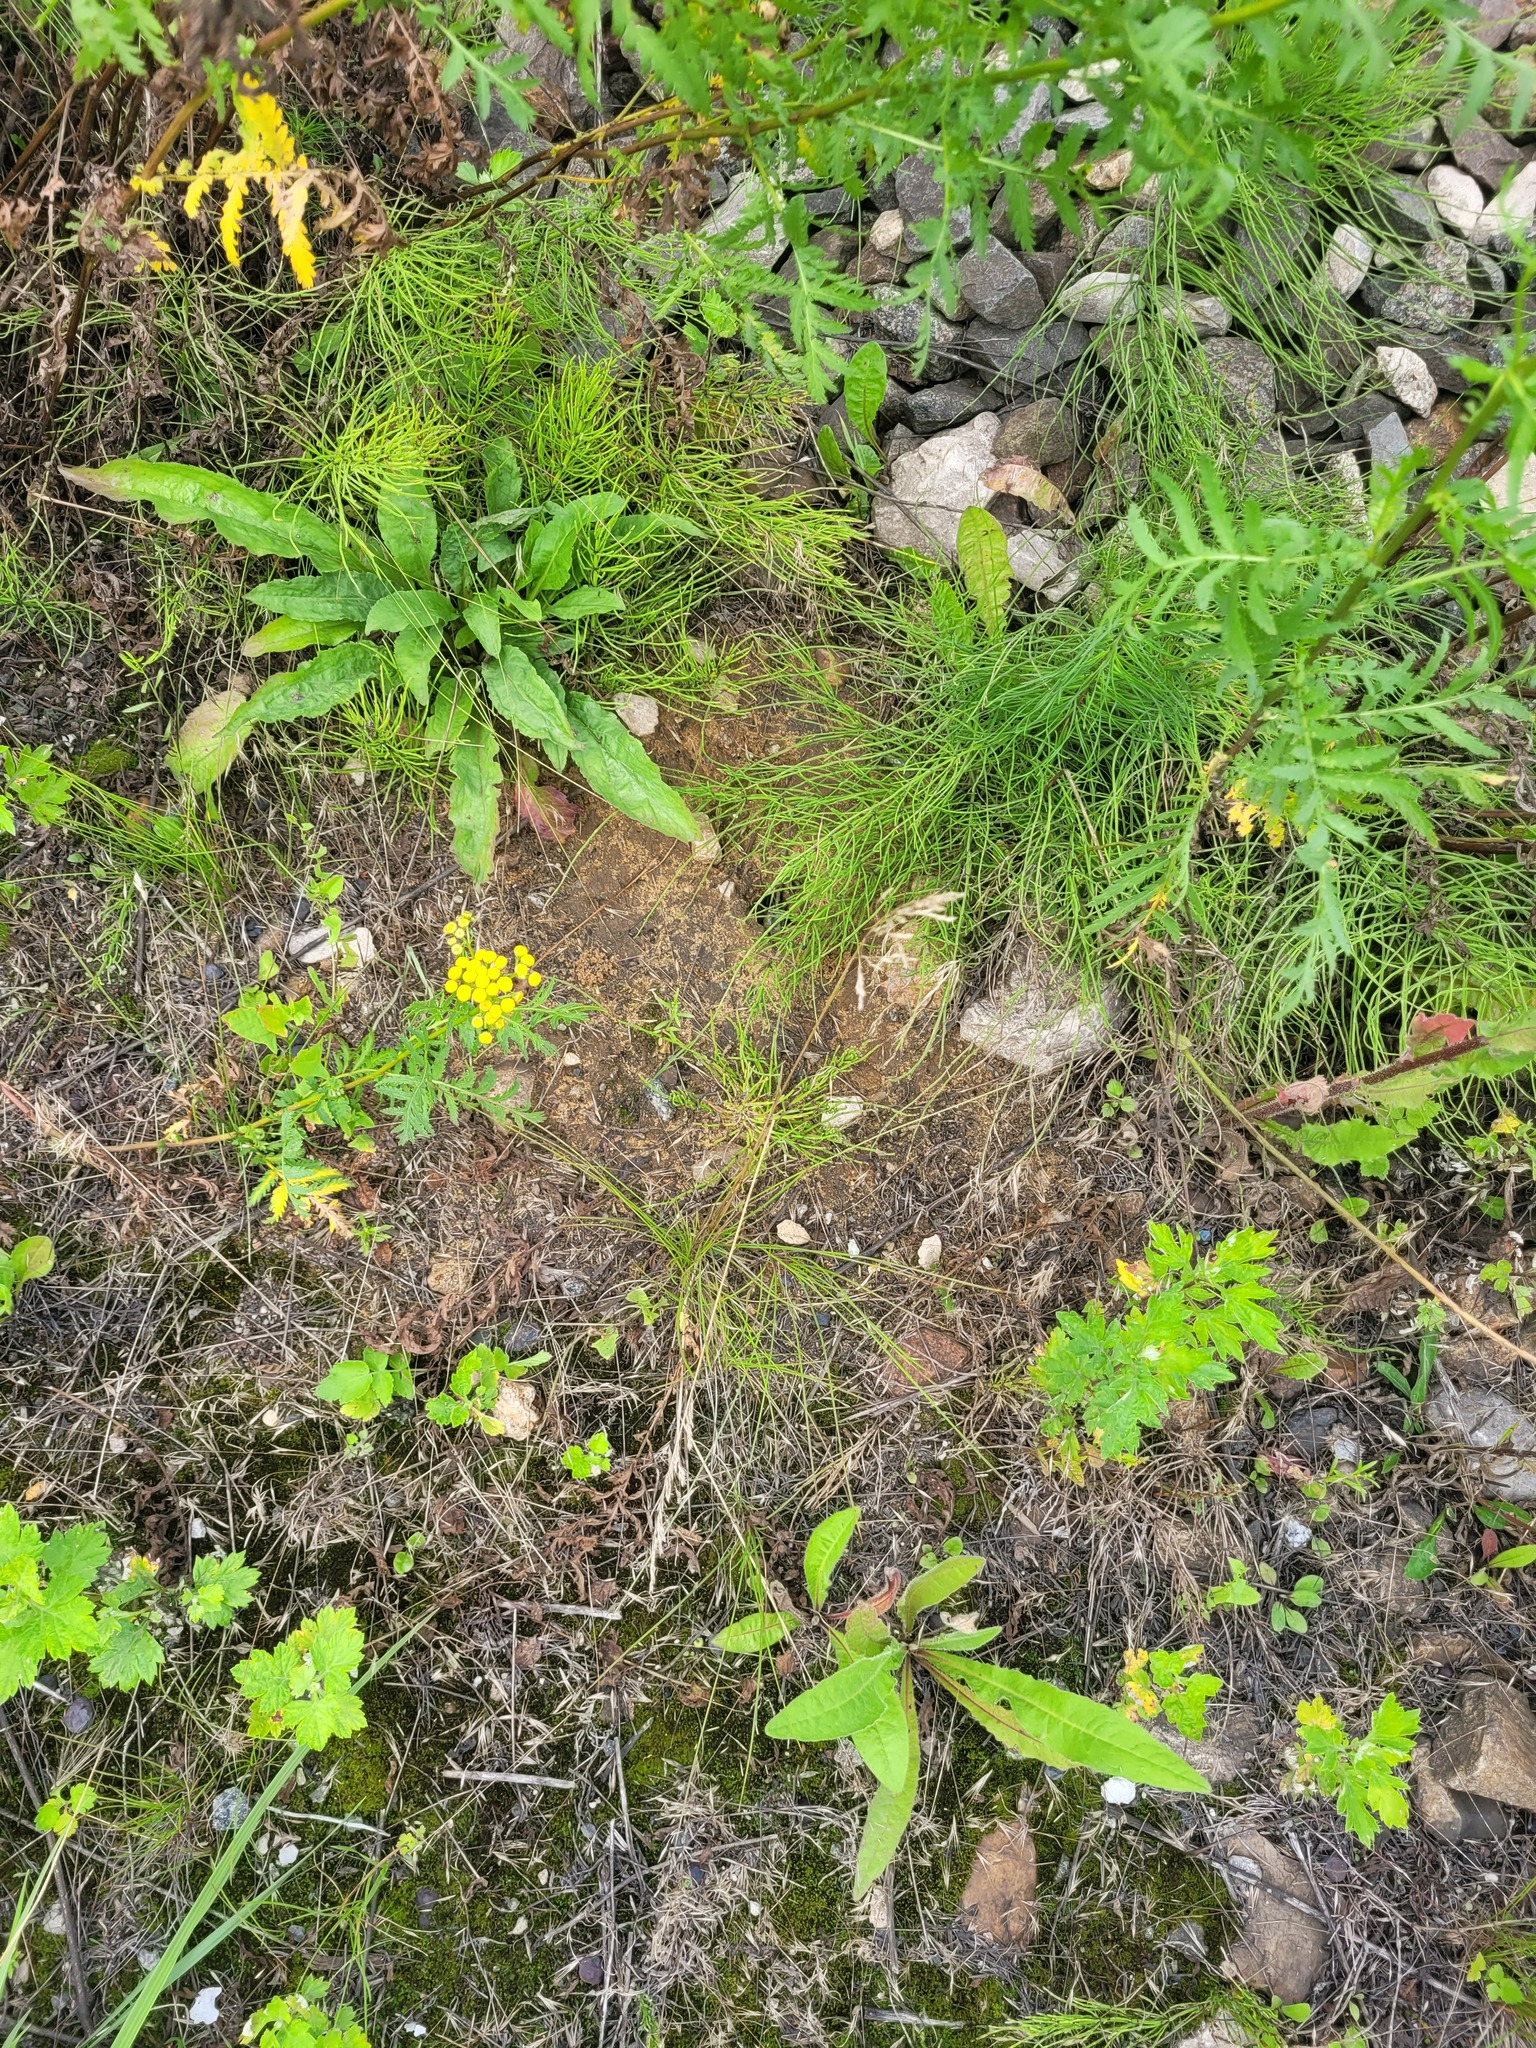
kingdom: Plantae
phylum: Tracheophyta
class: Liliopsida
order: Poales
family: Poaceae
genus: Poa
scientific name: Poa angustifolia
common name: Narrow-leaved meadow-grass
